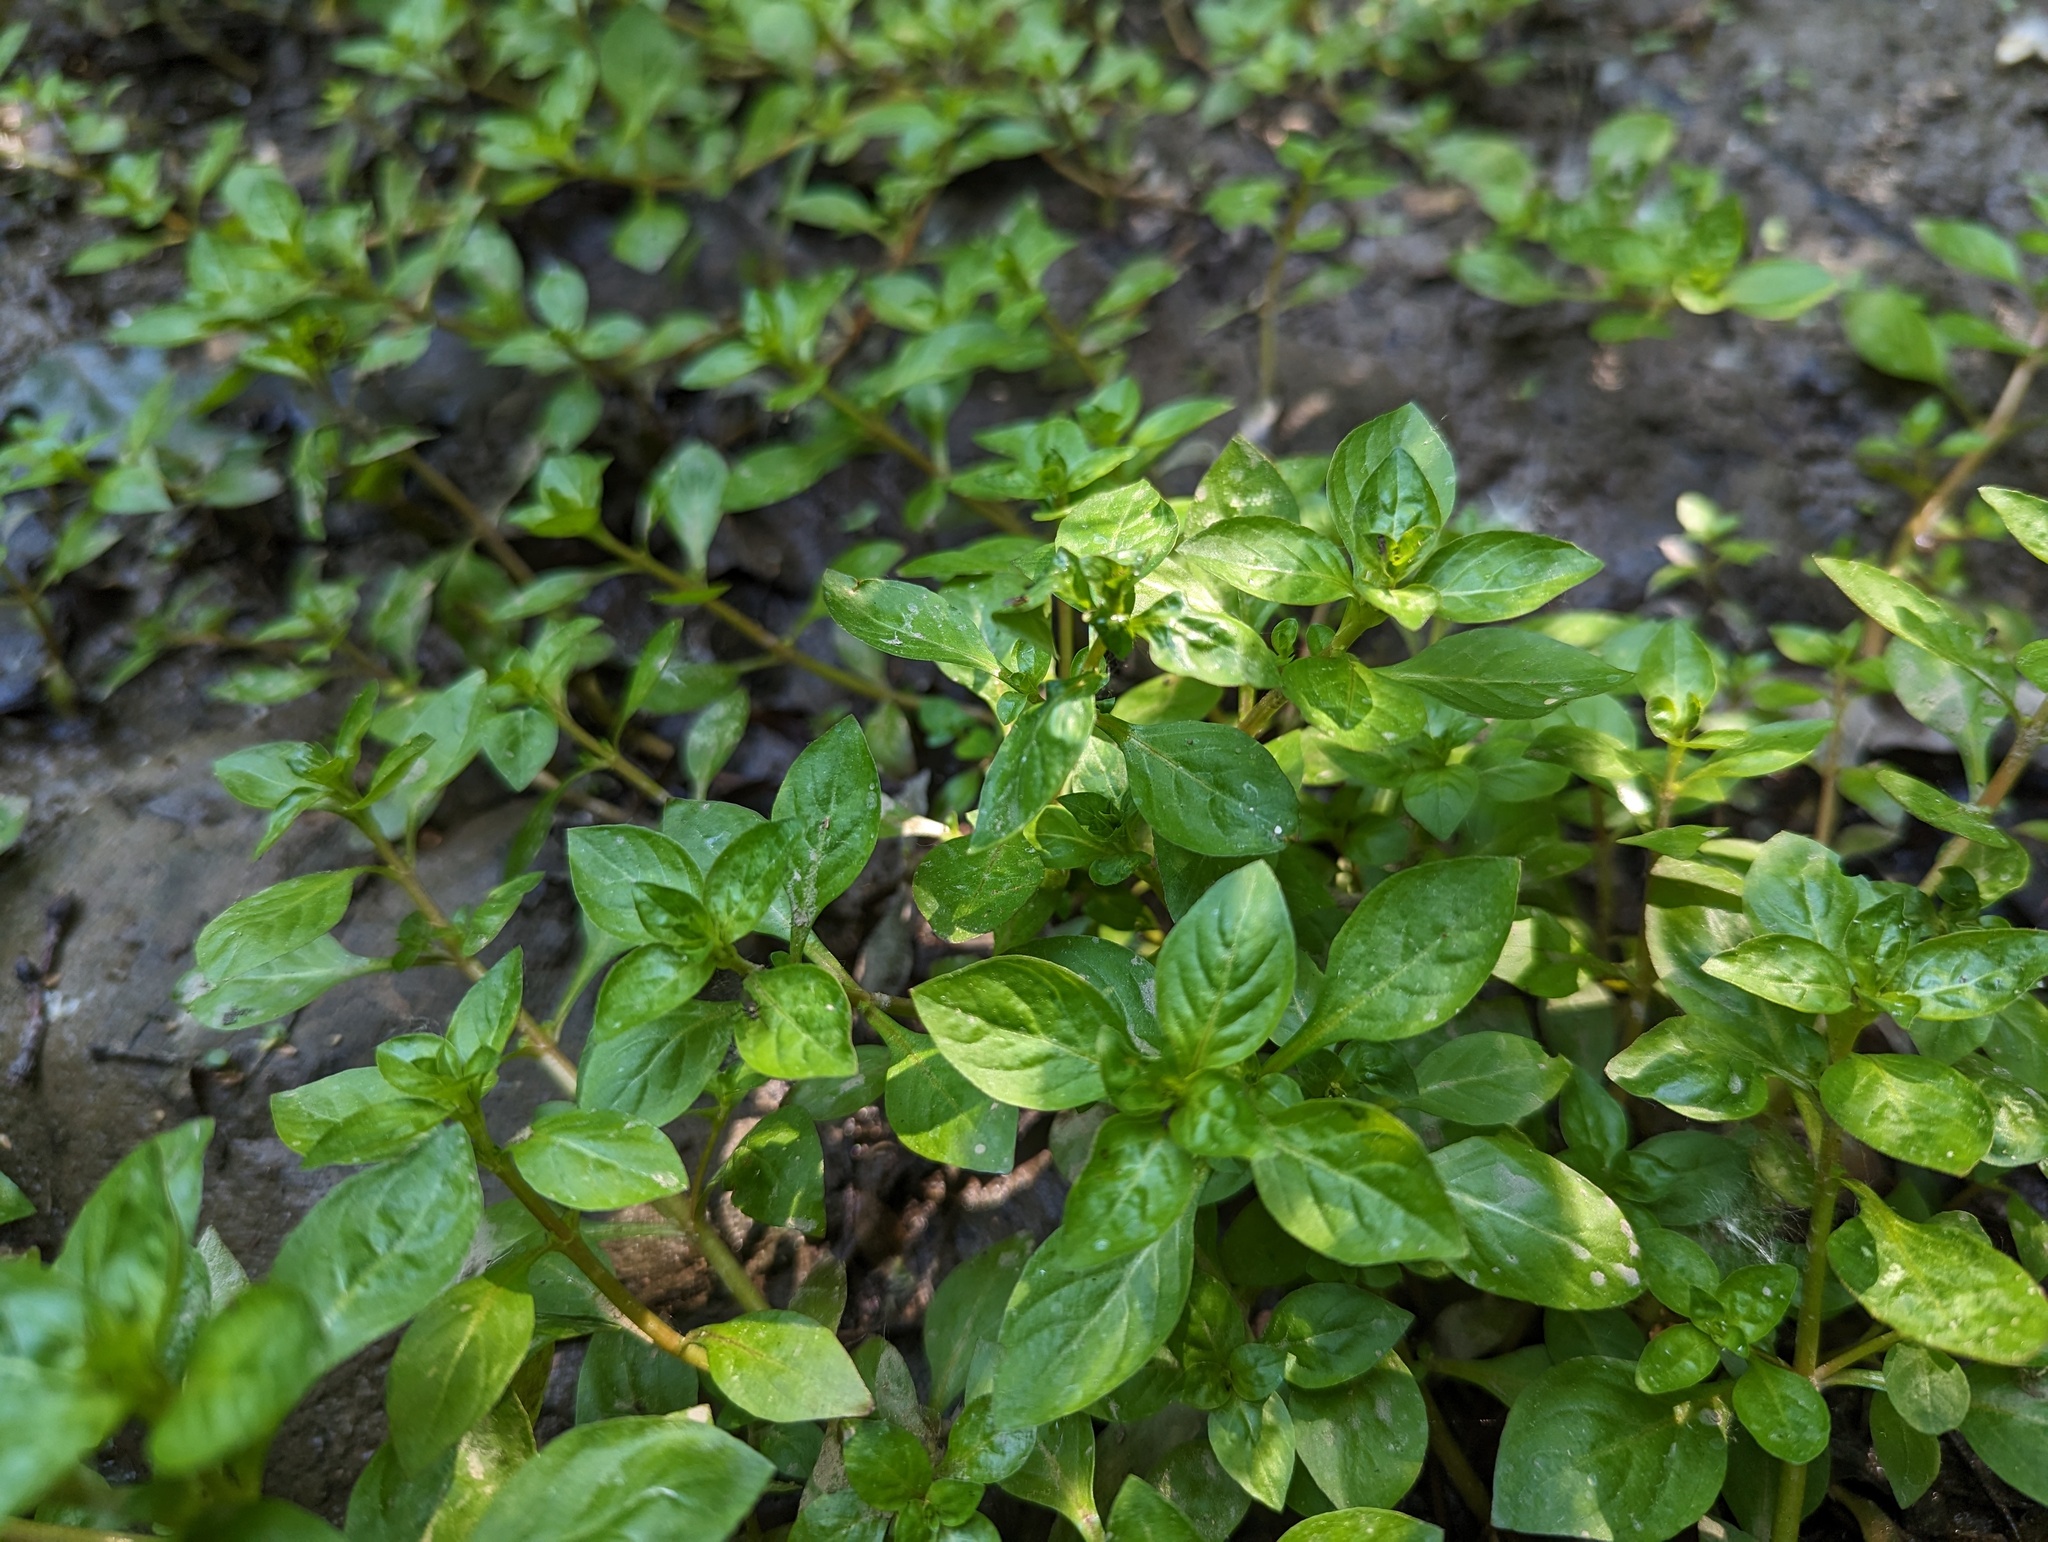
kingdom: Plantae
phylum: Tracheophyta
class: Magnoliopsida
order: Myrtales
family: Onagraceae
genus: Ludwigia
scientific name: Ludwigia palustris
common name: Hampshire-purslane
